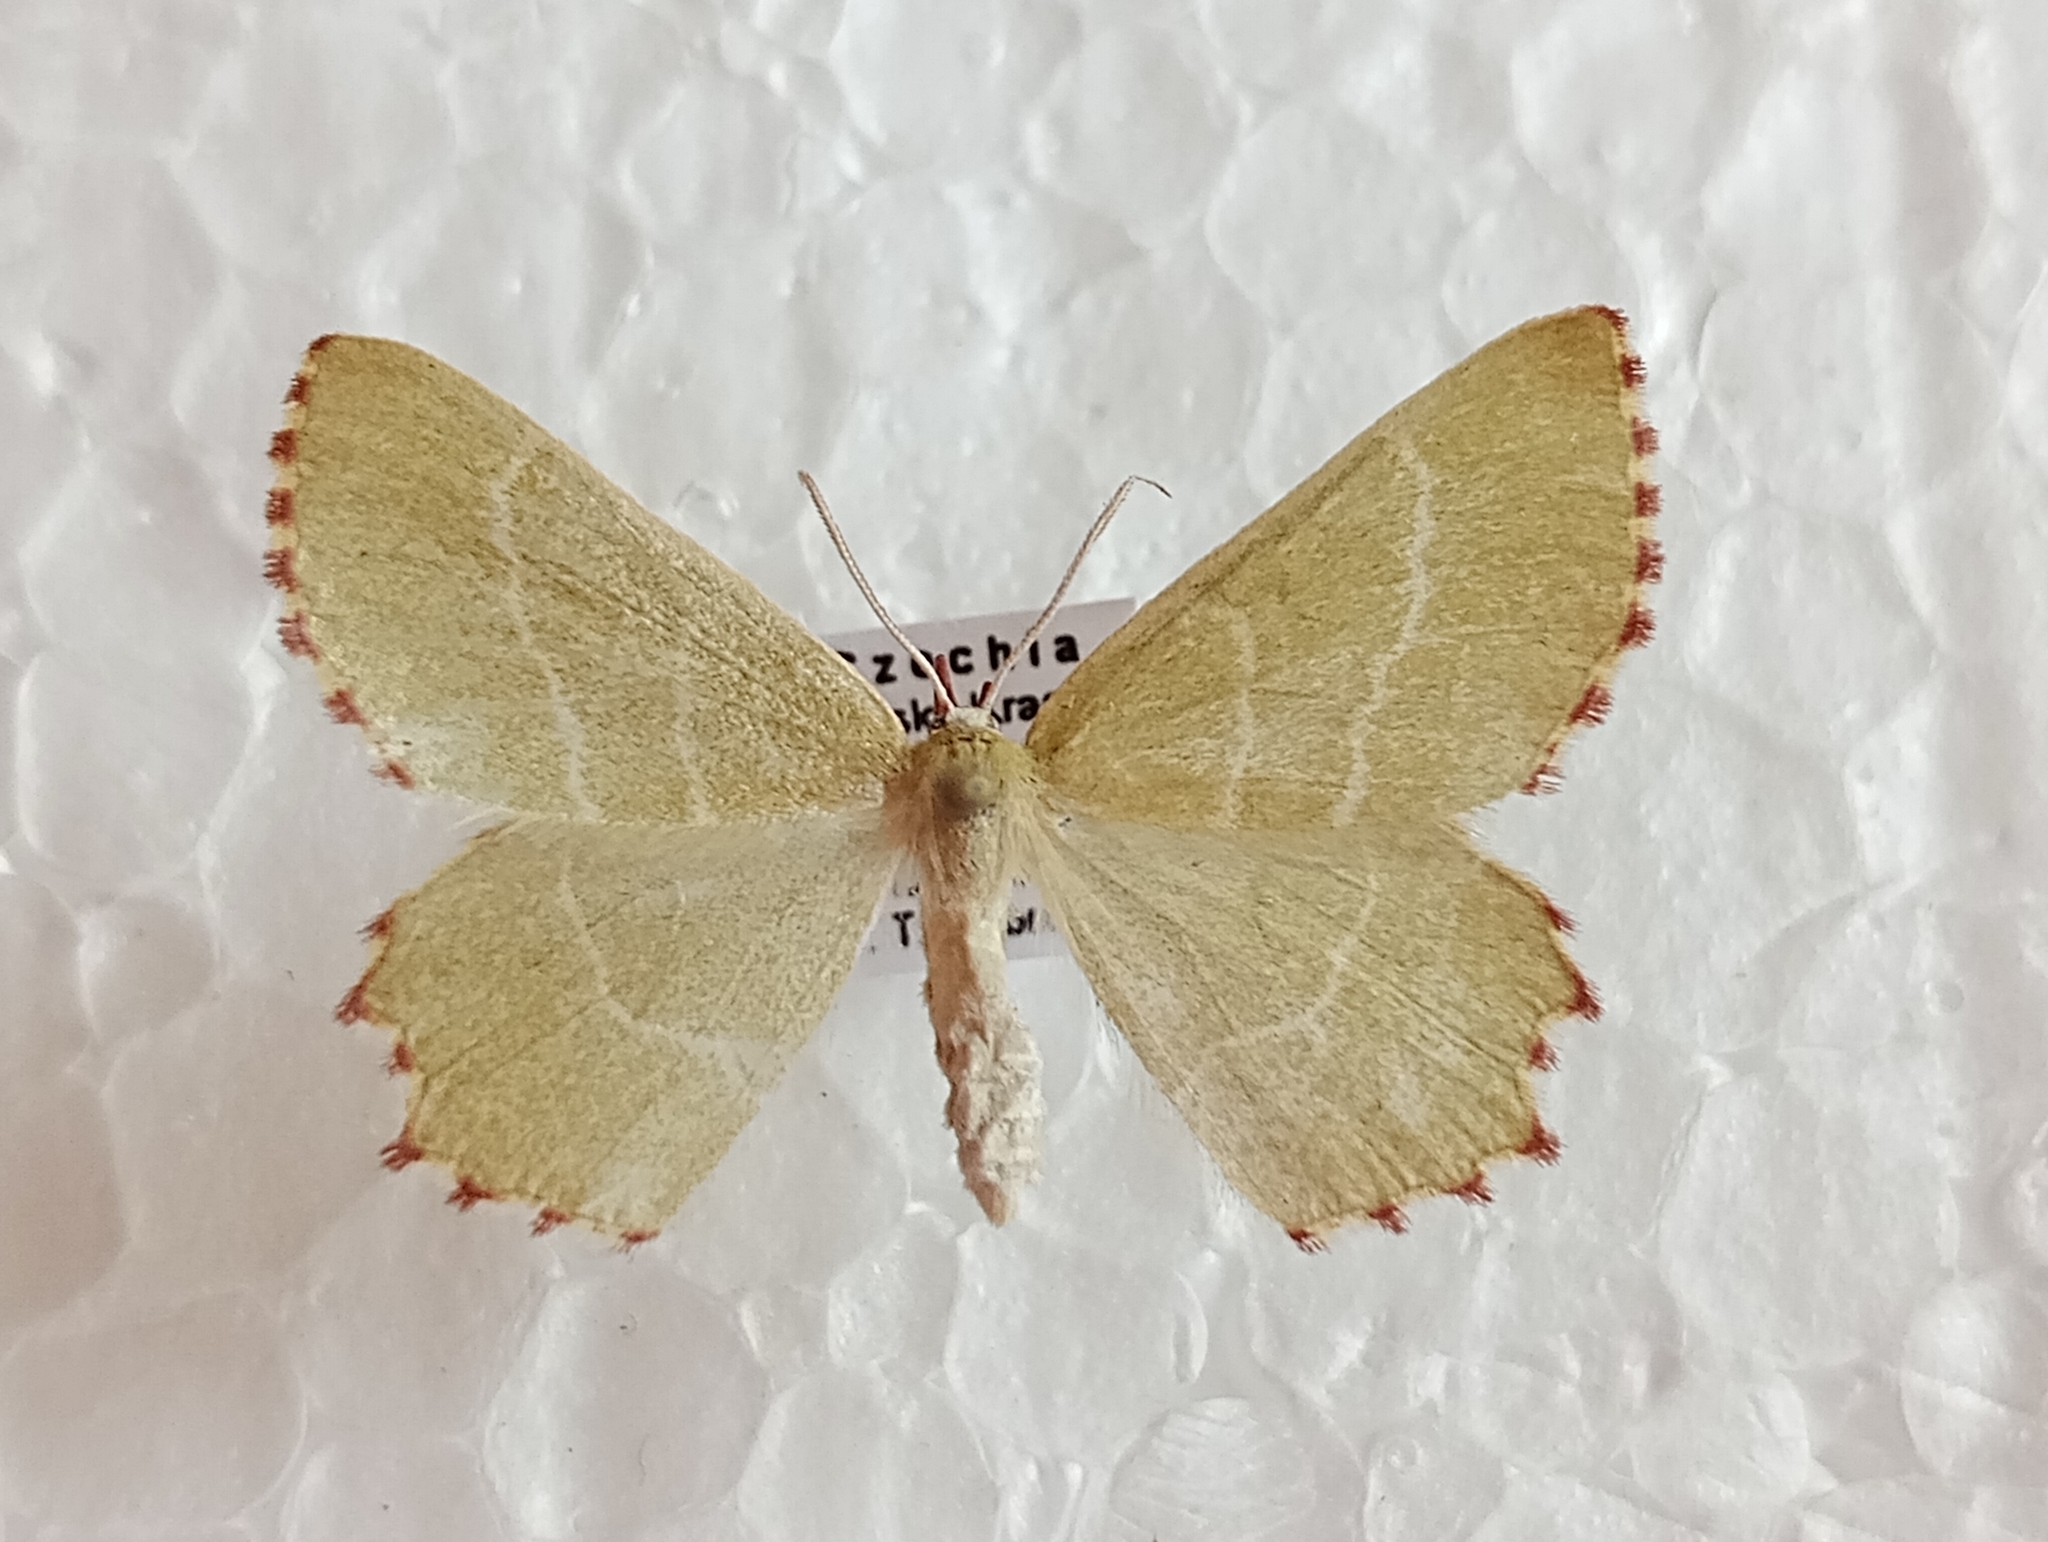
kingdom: Animalia
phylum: Arthropoda
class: Insecta
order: Lepidoptera
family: Geometridae
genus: Thalera
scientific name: Thalera fimbrialis
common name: Sussex emerald
